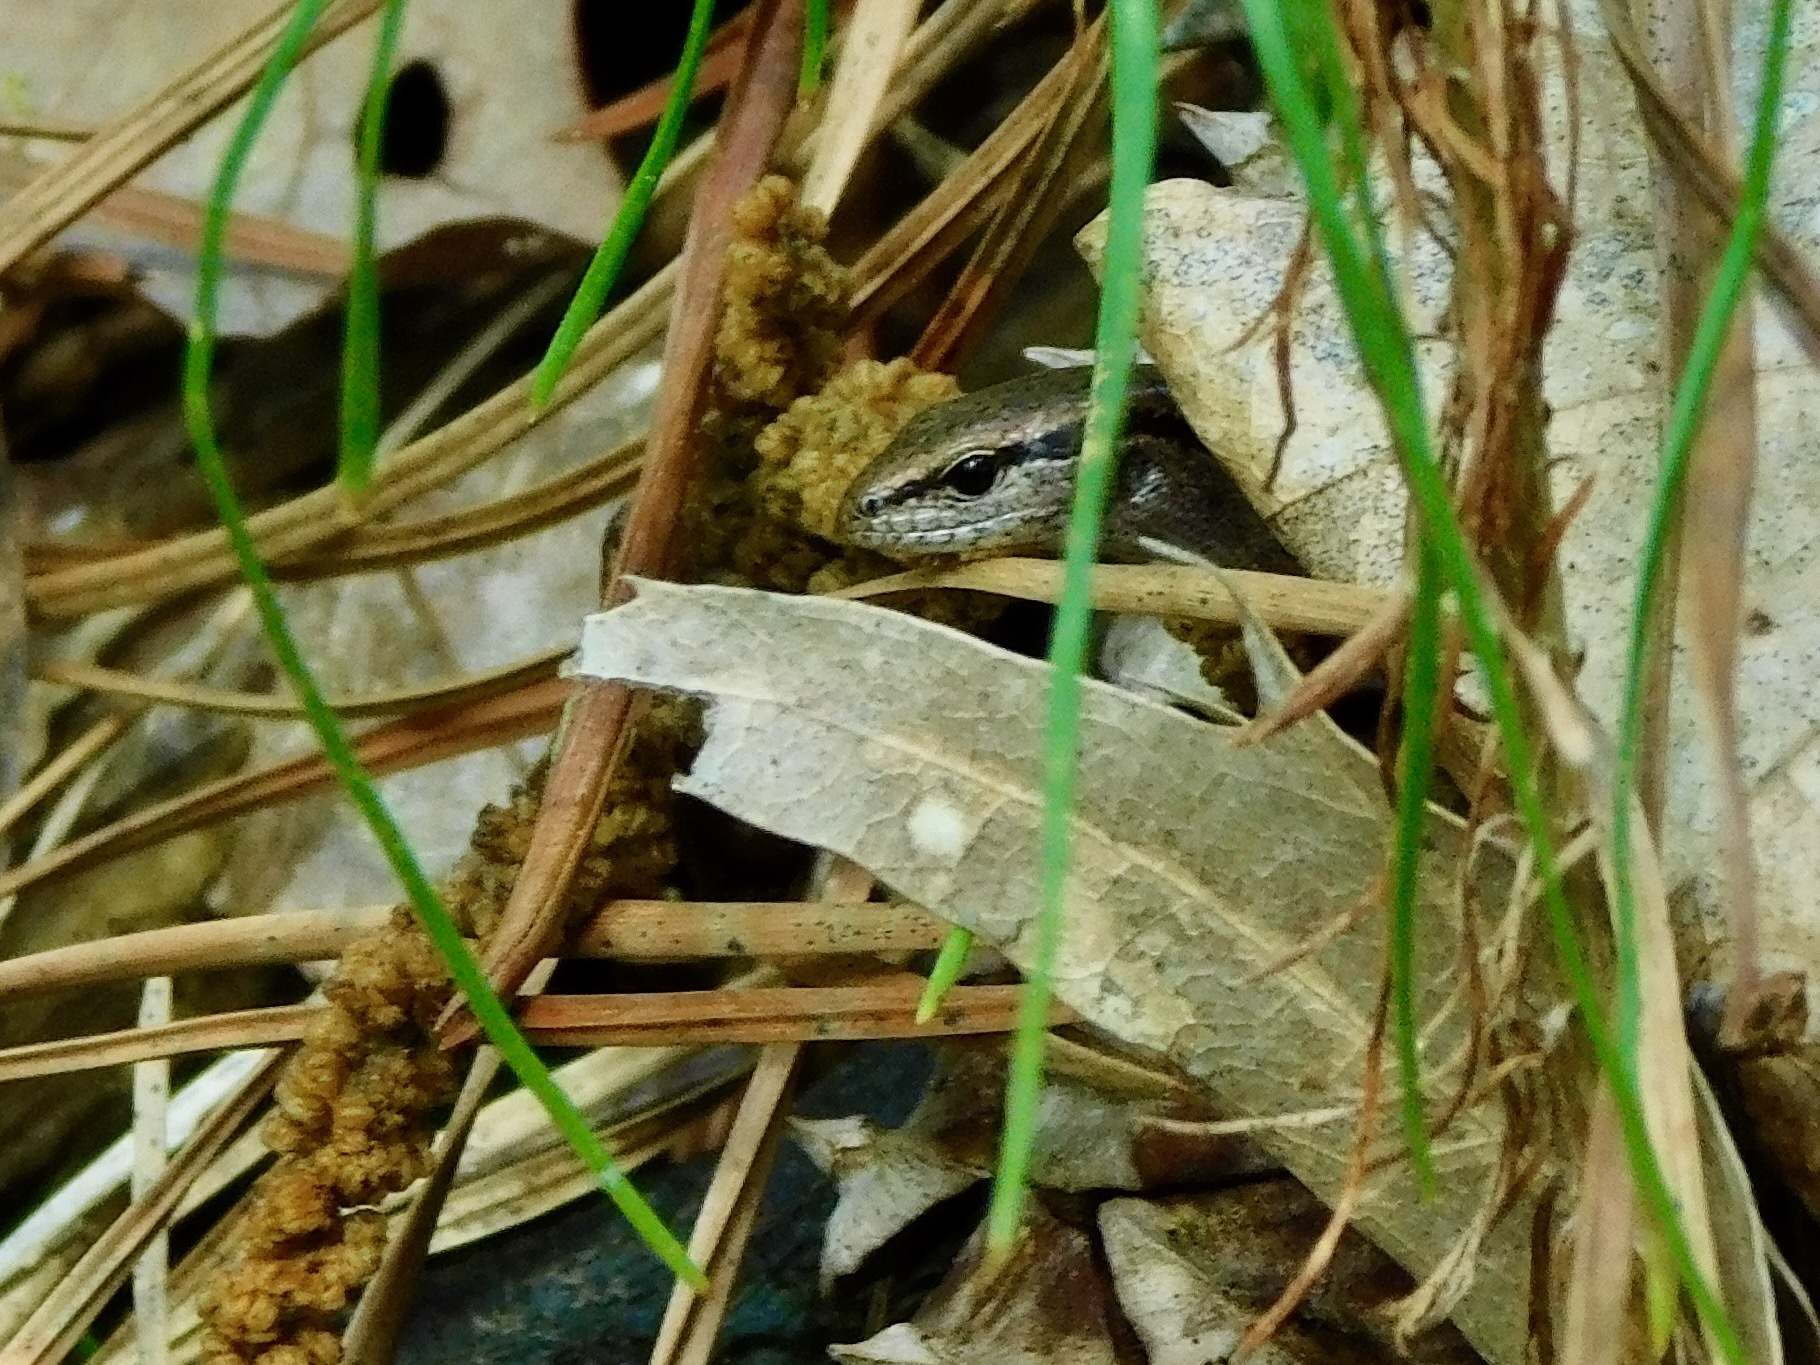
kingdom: Animalia
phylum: Chordata
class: Squamata
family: Scincidae
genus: Scincella
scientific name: Scincella lateralis
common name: Ground skink
